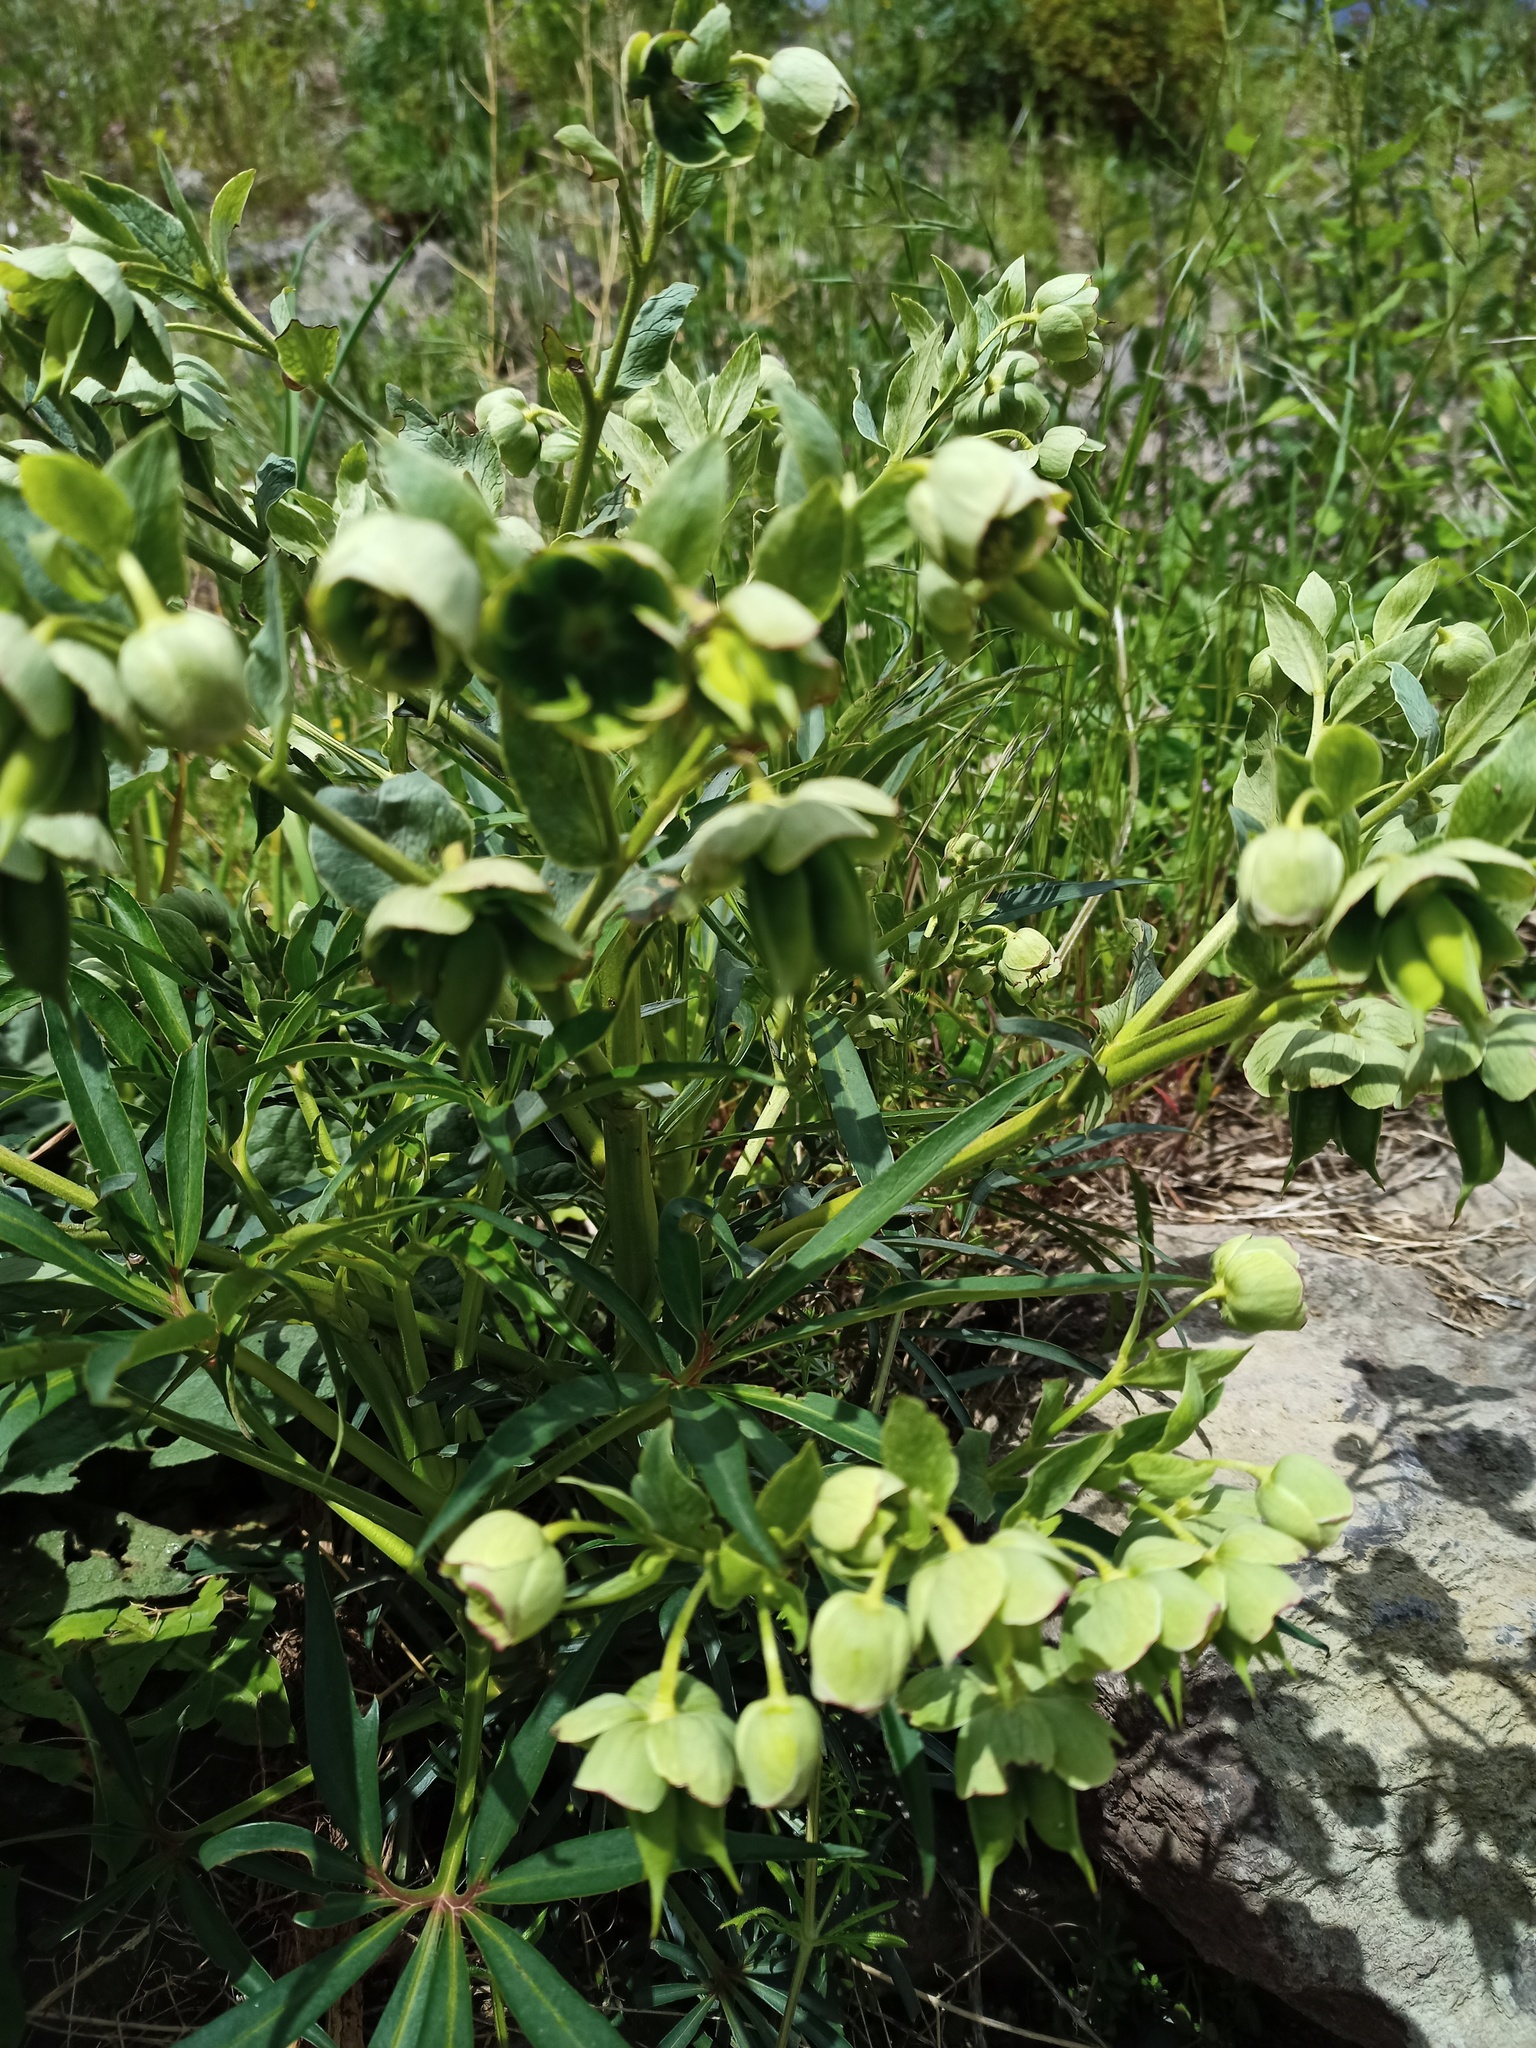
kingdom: Plantae
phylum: Tracheophyta
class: Magnoliopsida
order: Ranunculales
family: Ranunculaceae
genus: Helleborus
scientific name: Helleborus foetidus
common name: Stinking hellebore
